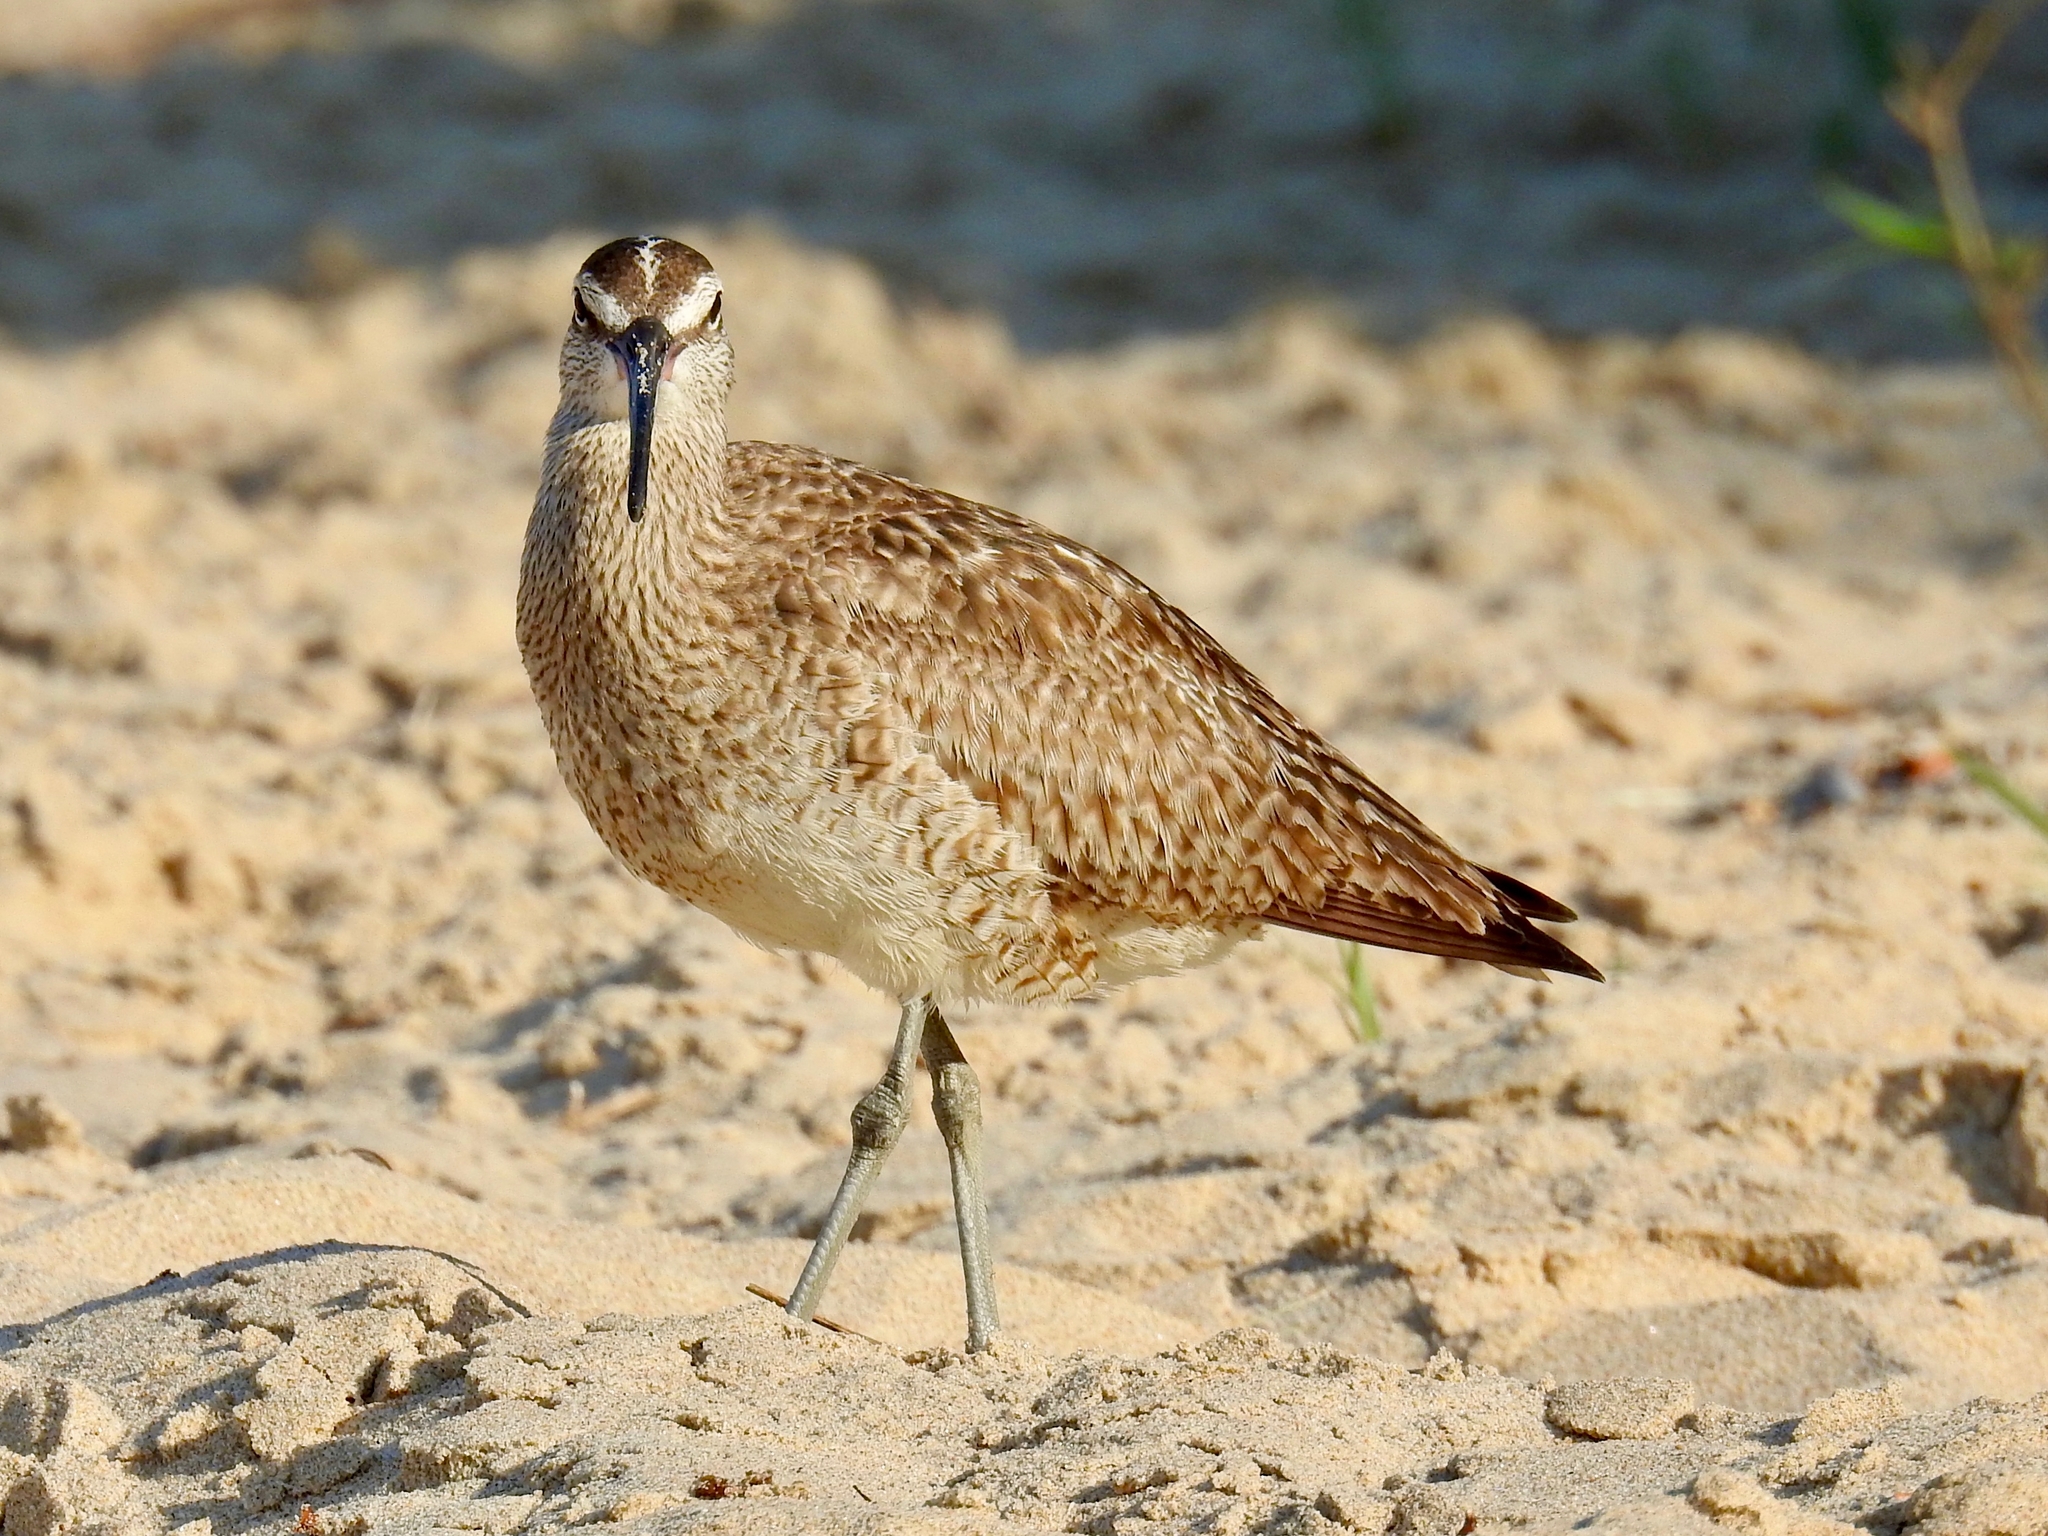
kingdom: Animalia
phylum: Chordata
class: Aves
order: Charadriiformes
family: Scolopacidae
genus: Numenius
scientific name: Numenius phaeopus
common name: Whimbrel
